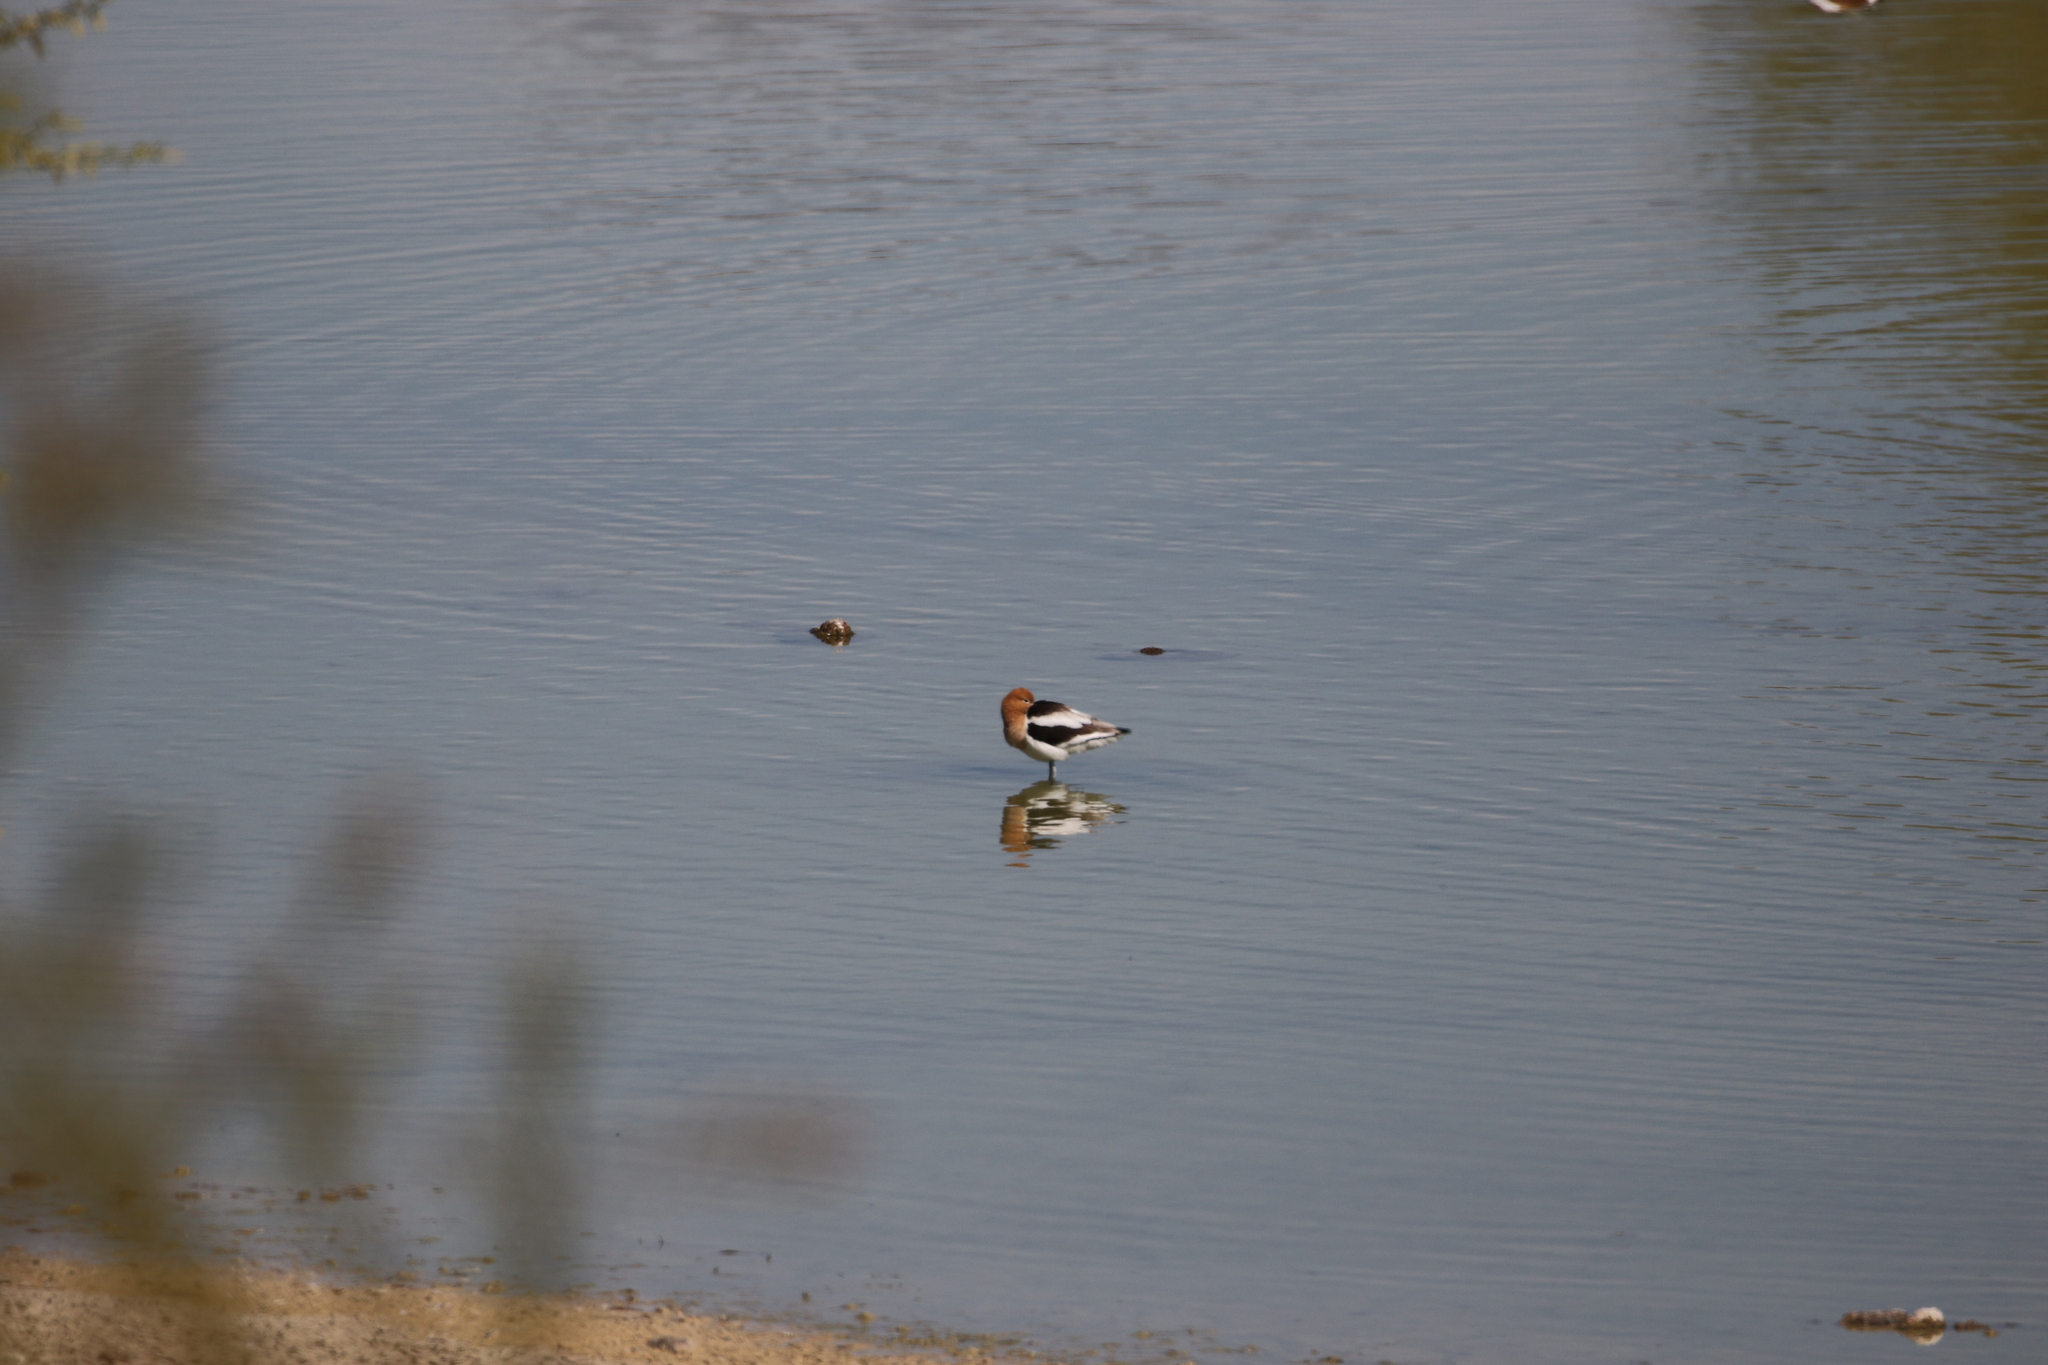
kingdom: Animalia
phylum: Chordata
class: Aves
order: Charadriiformes
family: Recurvirostridae
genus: Recurvirostra
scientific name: Recurvirostra americana
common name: American avocet
